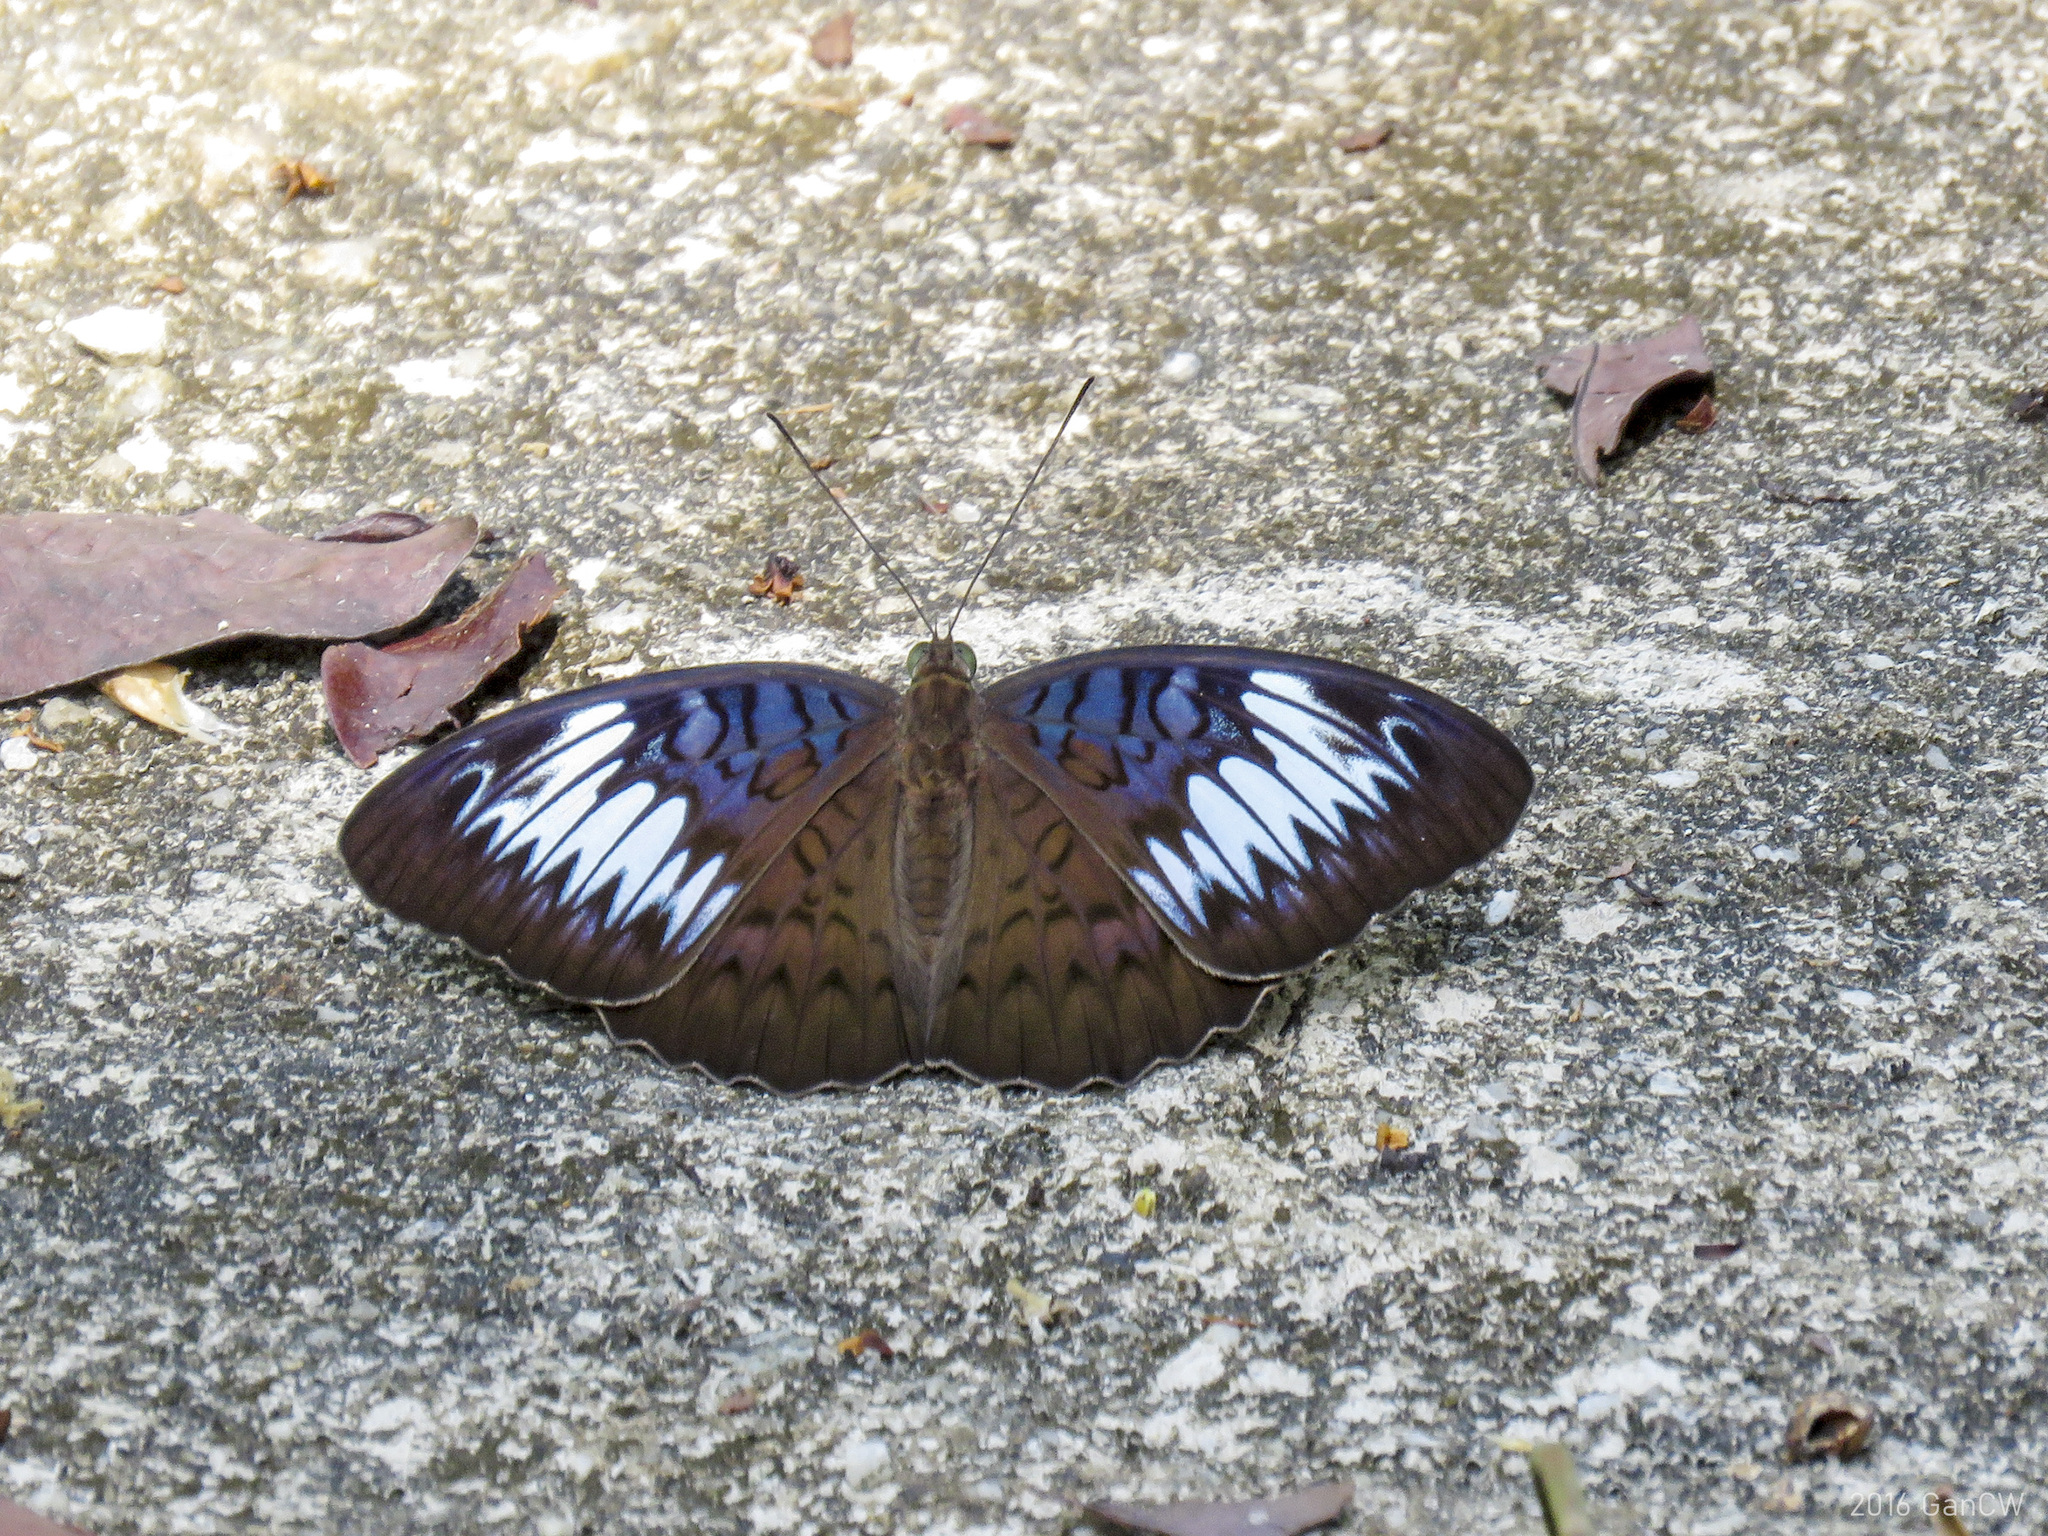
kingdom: Animalia
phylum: Arthropoda
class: Insecta
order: Lepidoptera
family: Nymphalidae
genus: Tanaecia
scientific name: Tanaecia pelea
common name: Malay viscount
